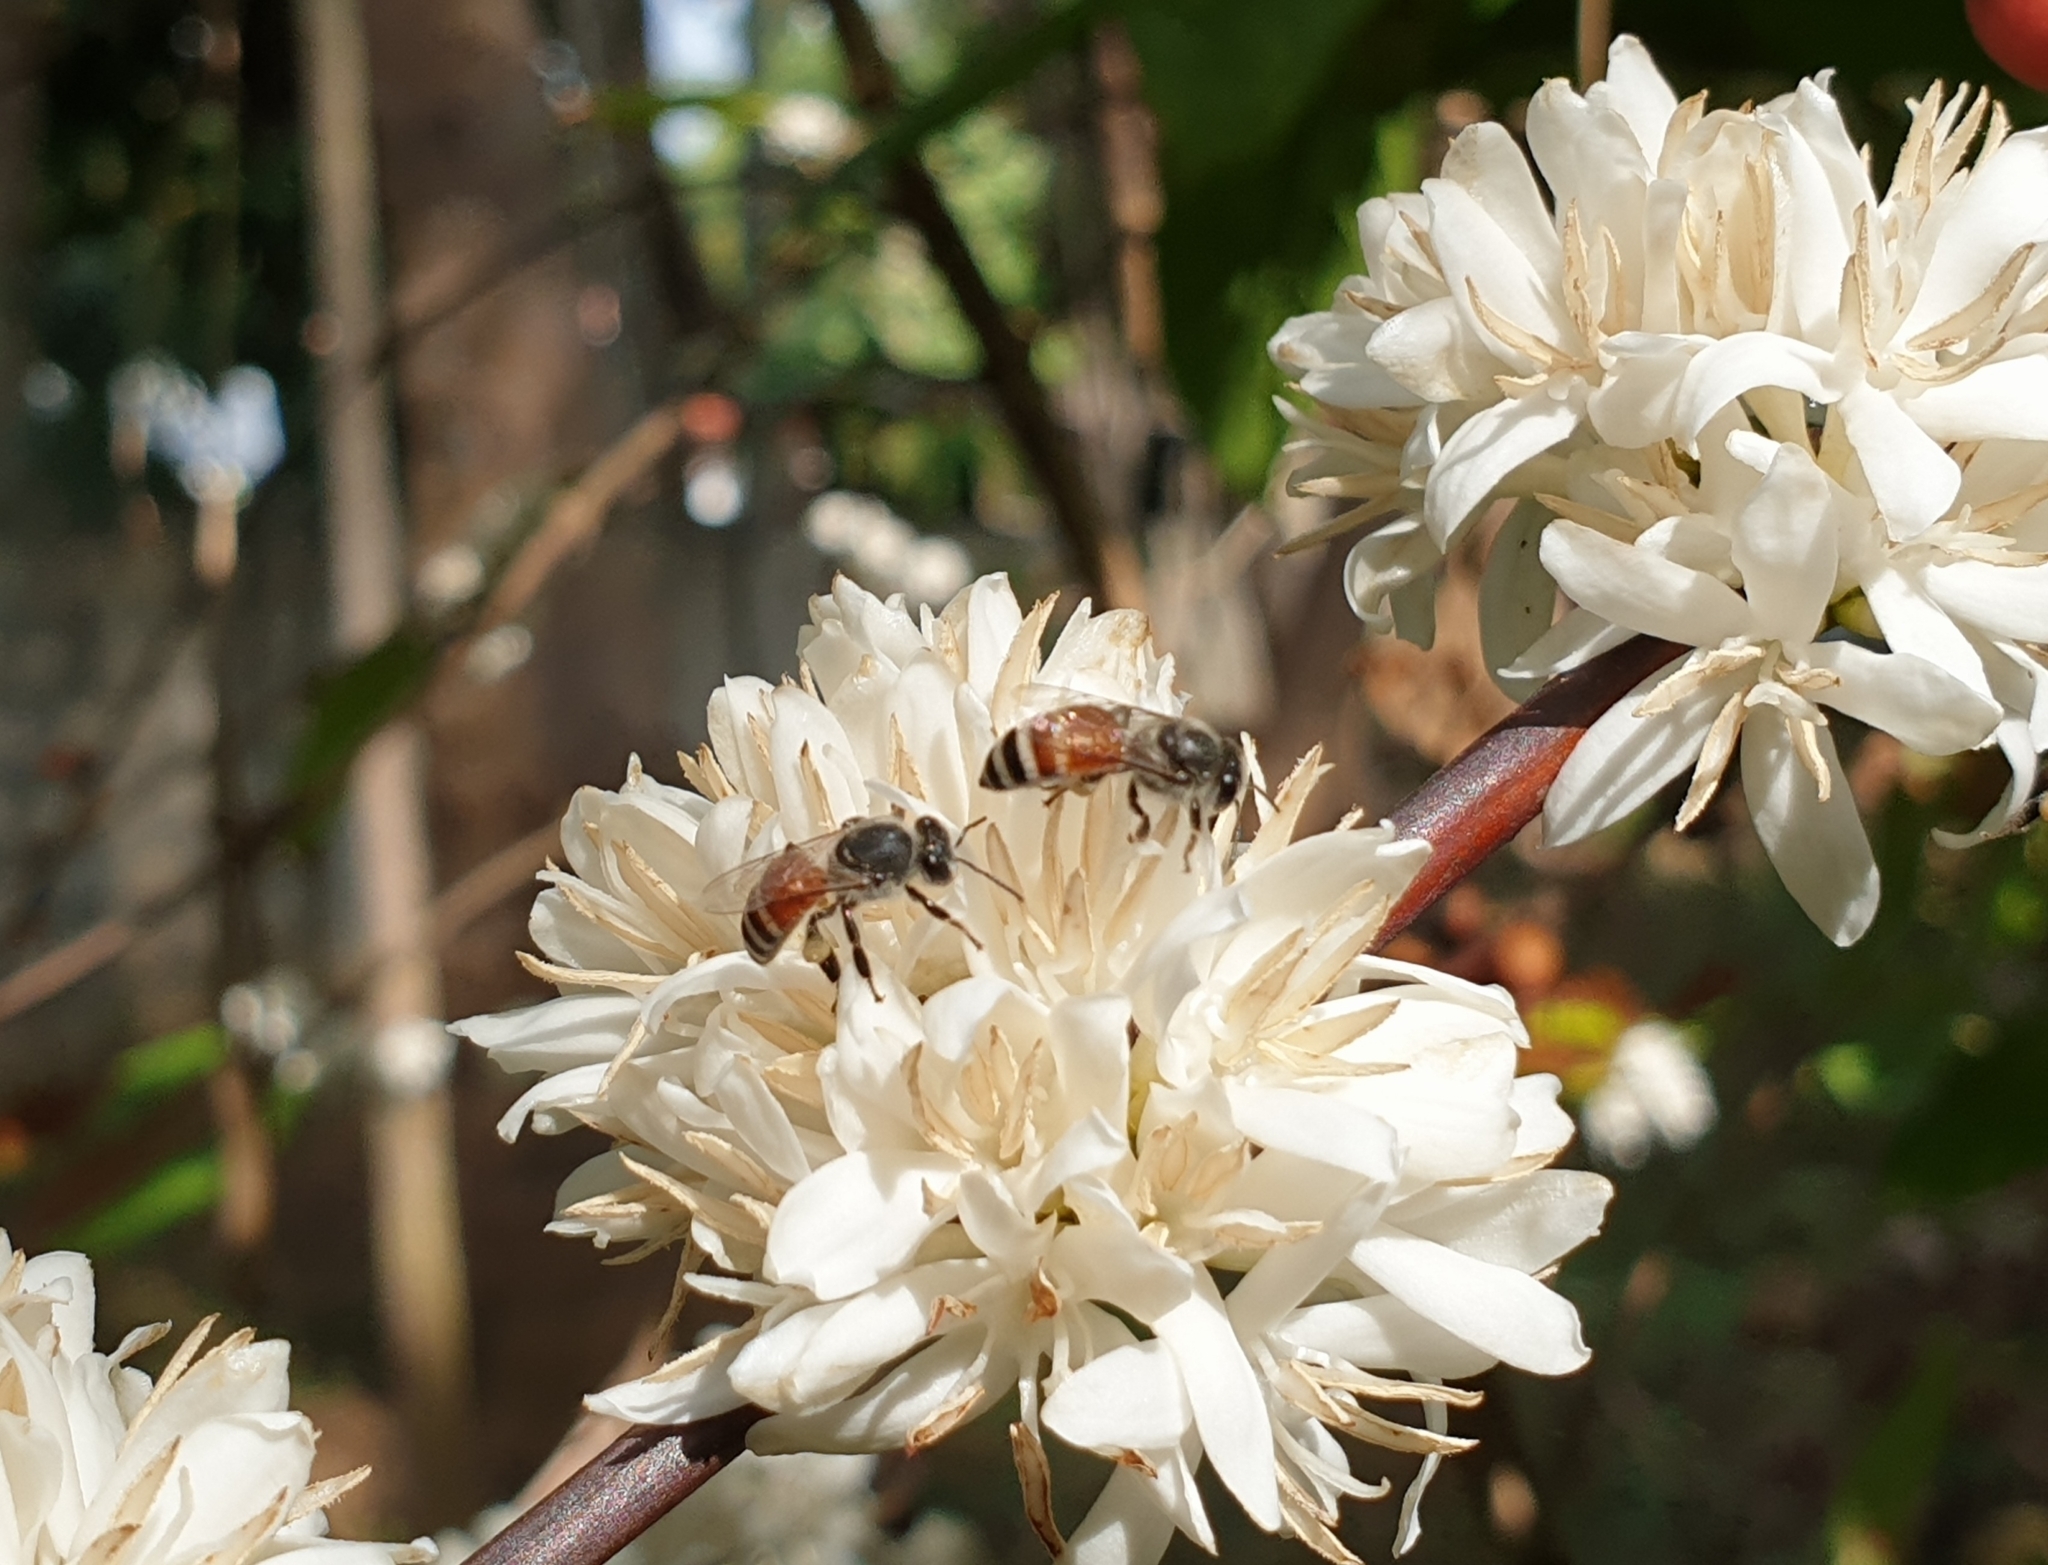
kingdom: Animalia
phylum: Arthropoda
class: Insecta
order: Hymenoptera
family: Apidae
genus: Apis
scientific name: Apis florea
